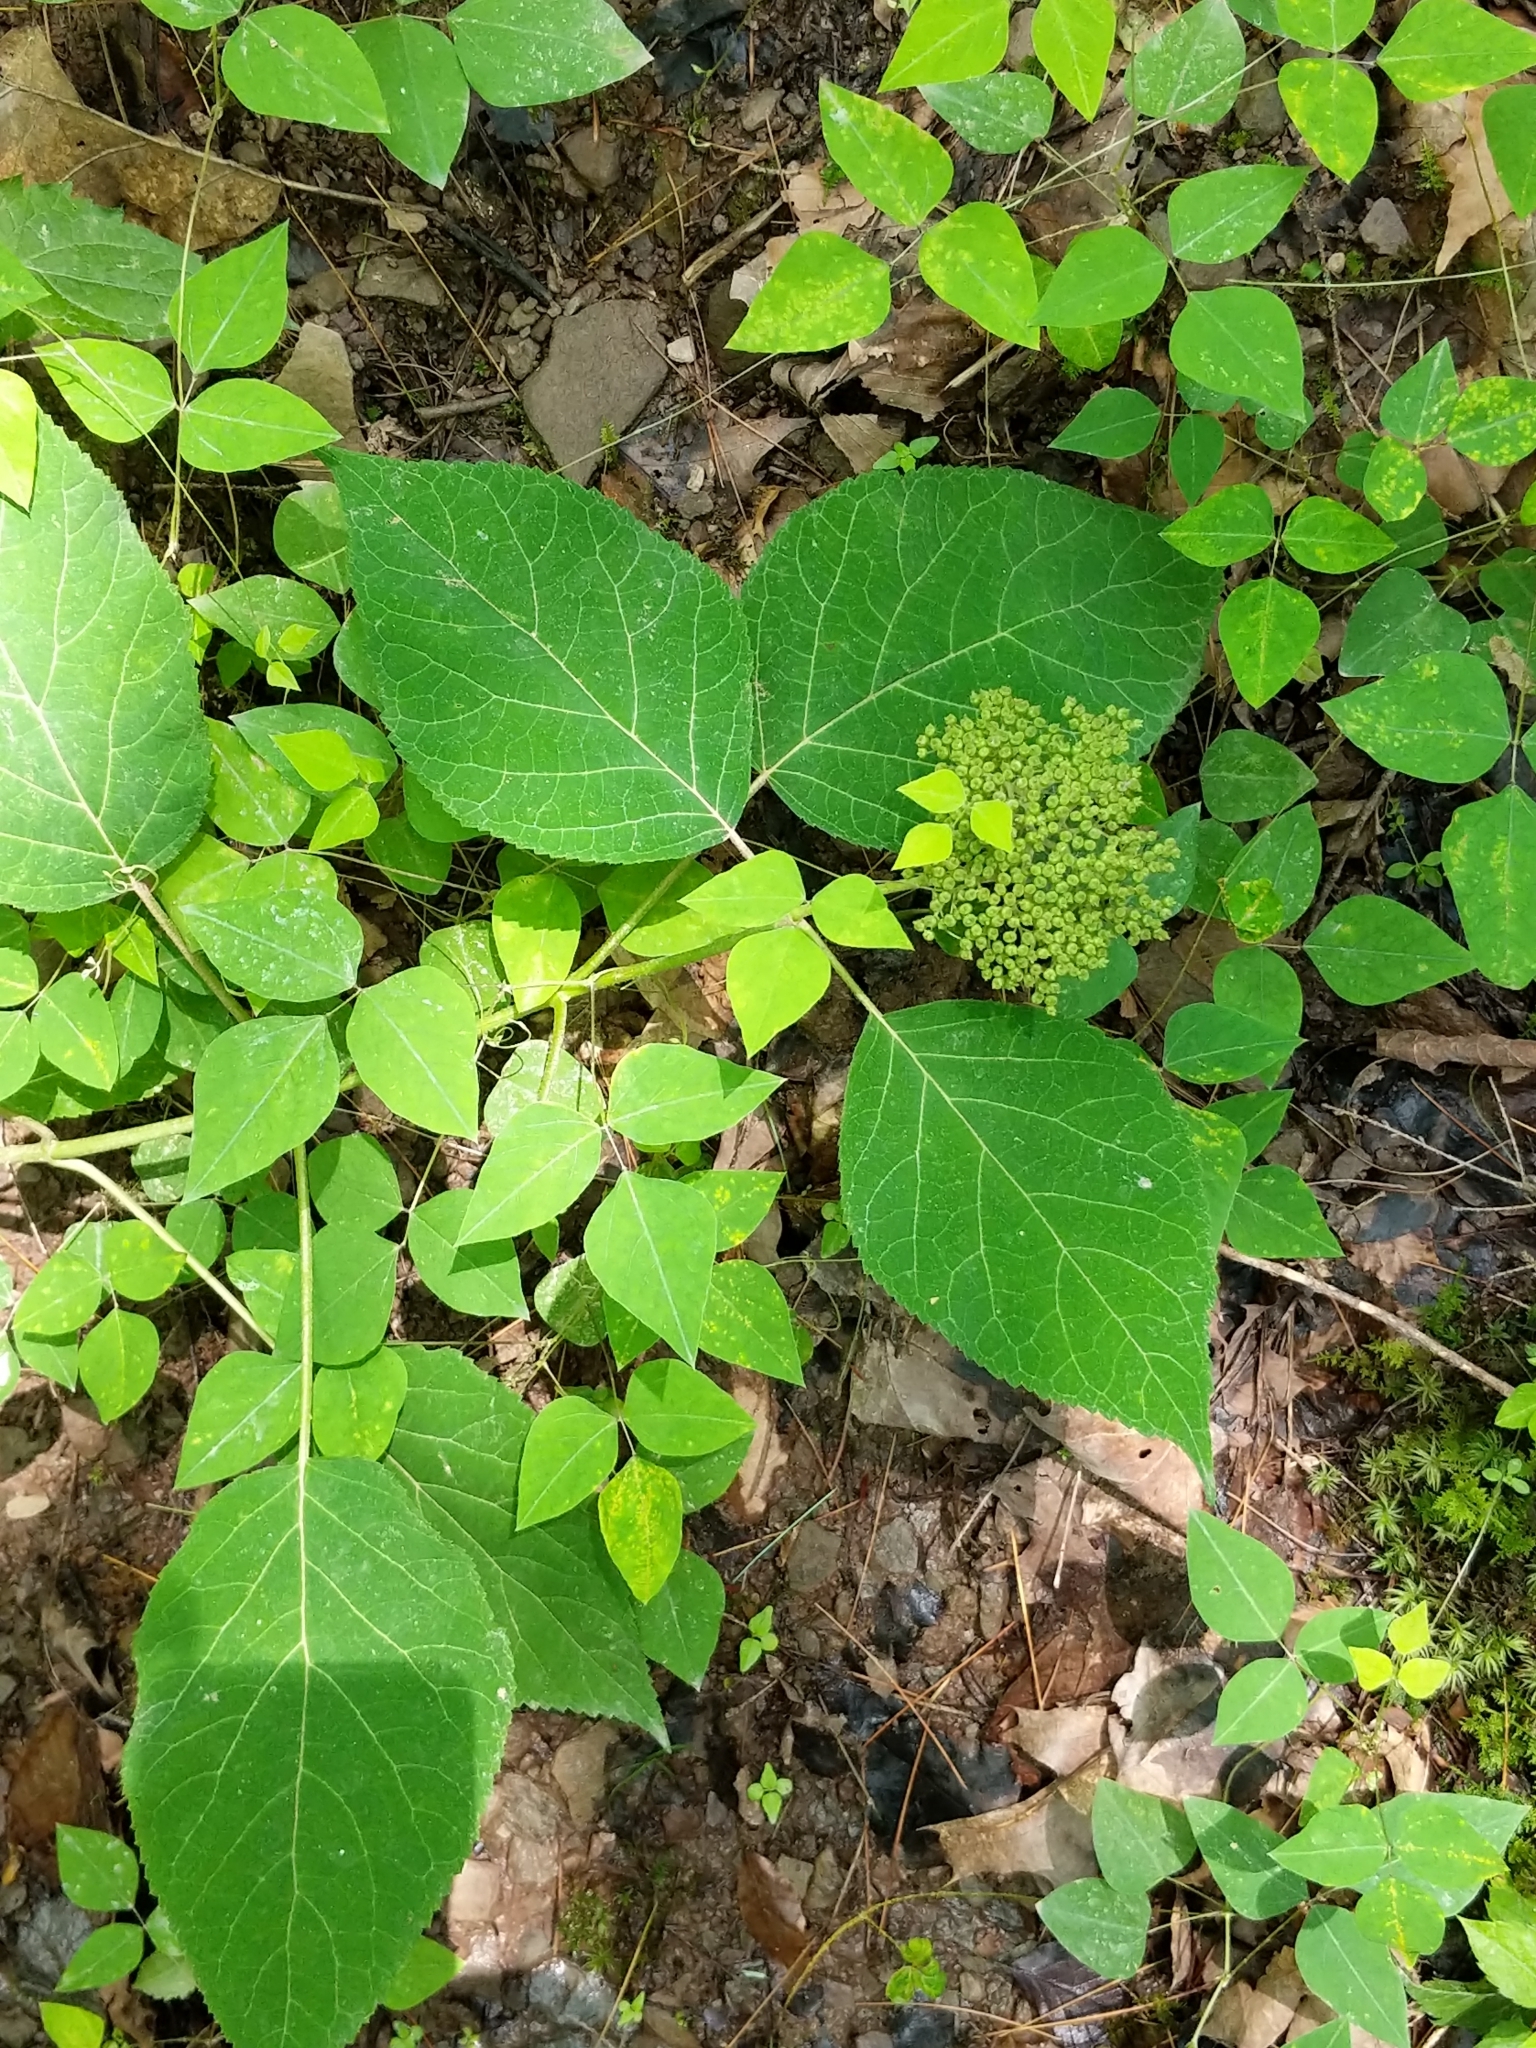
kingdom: Plantae
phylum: Tracheophyta
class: Magnoliopsida
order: Cornales
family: Hydrangeaceae
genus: Hydrangea
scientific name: Hydrangea arborescens
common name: Sevenbark
